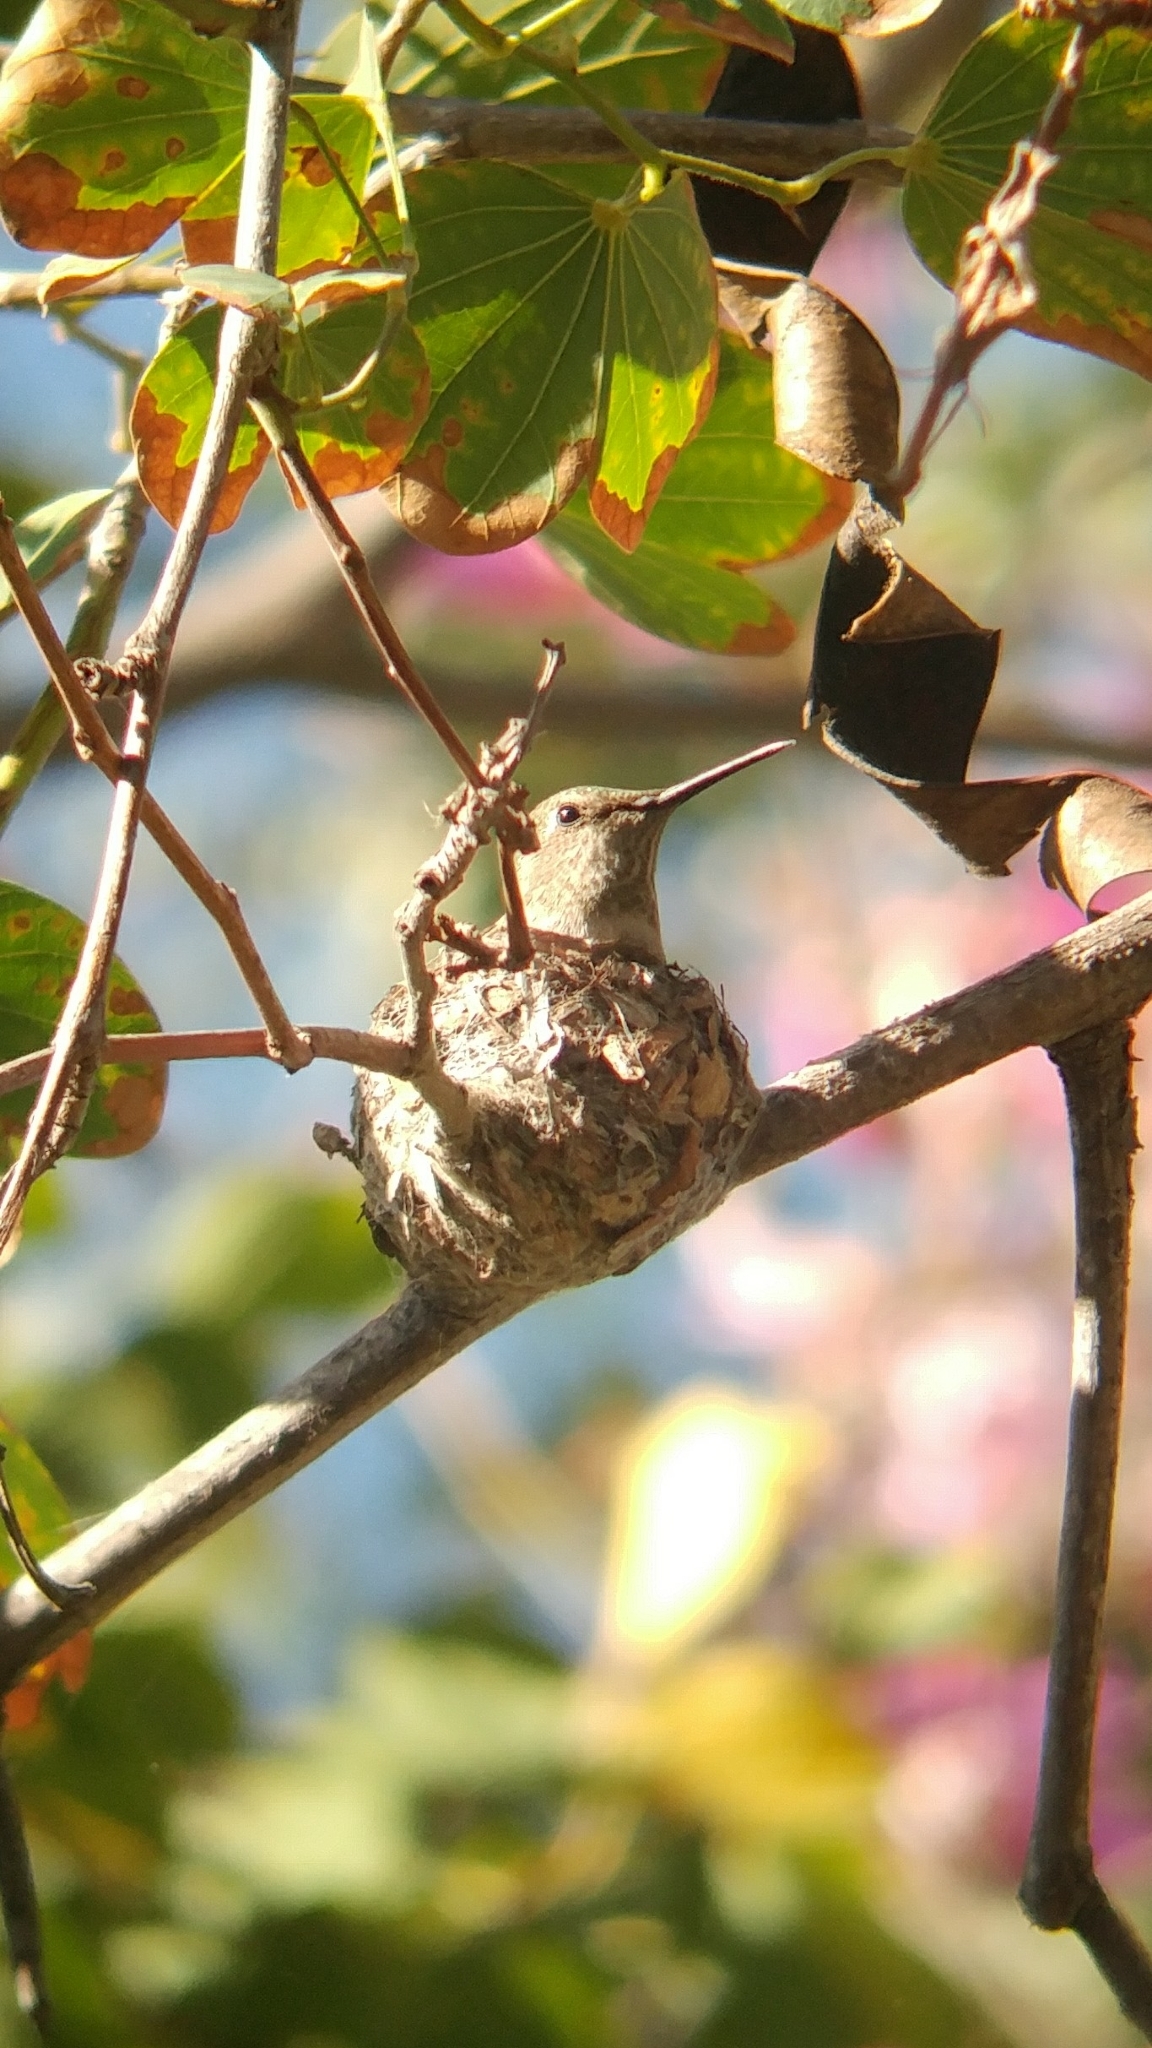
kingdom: Animalia
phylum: Chordata
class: Aves
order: Apodiformes
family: Trochilidae
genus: Calypte
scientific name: Calypte anna
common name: Anna's hummingbird
